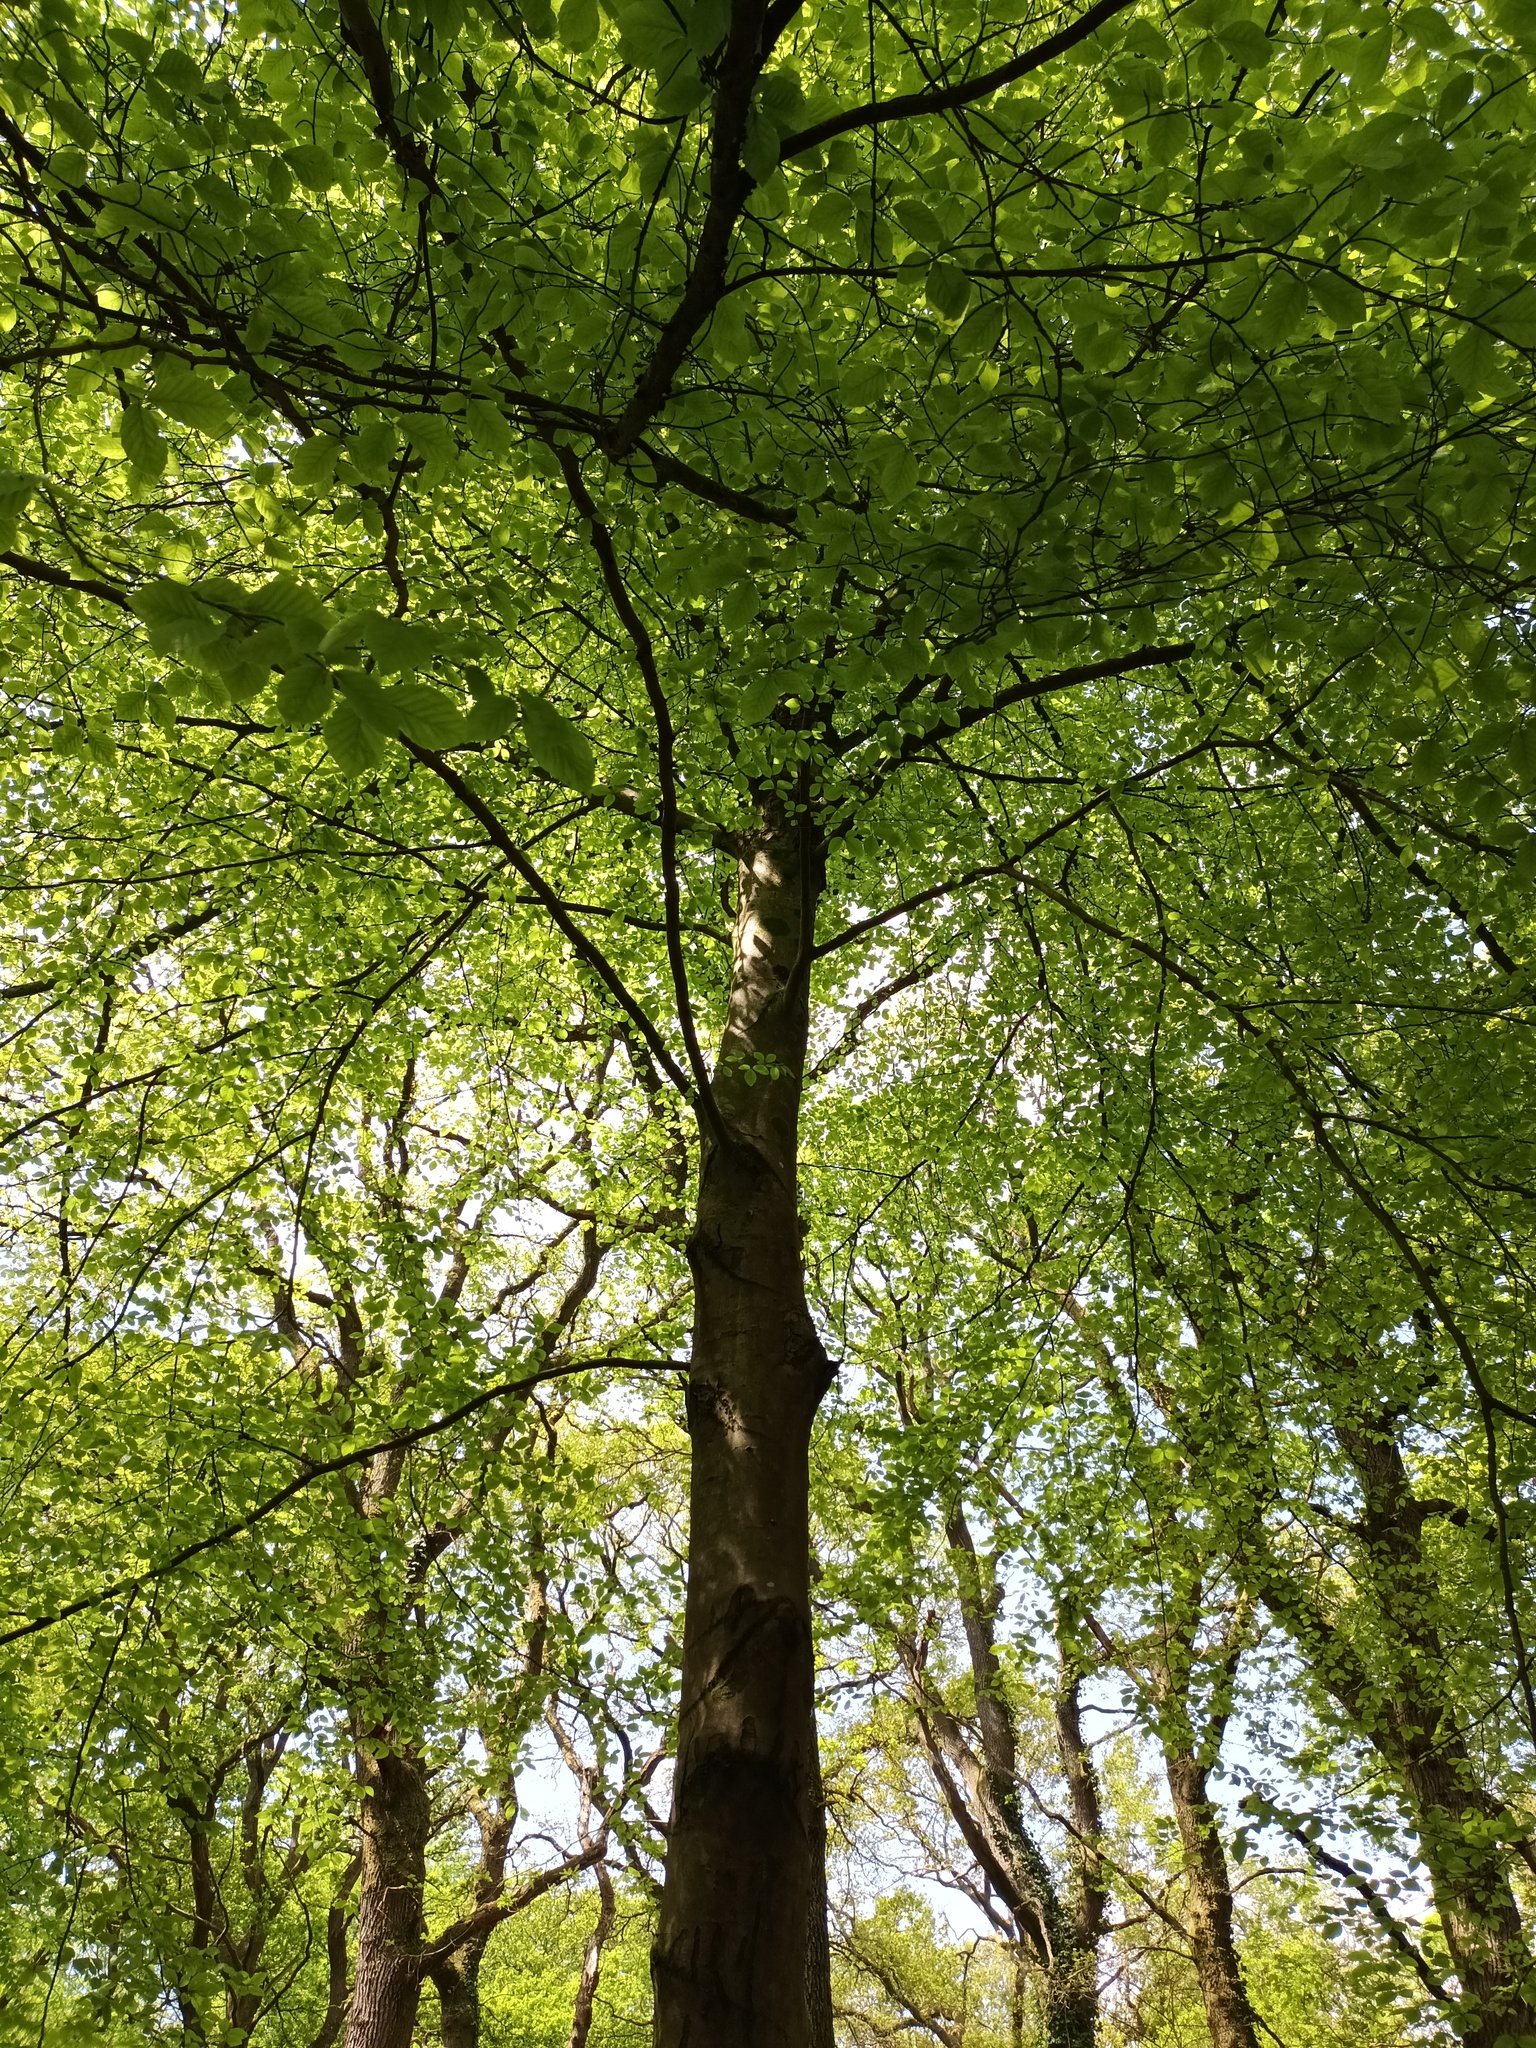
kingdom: Plantae
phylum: Tracheophyta
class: Magnoliopsida
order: Fagales
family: Fagaceae
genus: Fagus
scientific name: Fagus sylvatica
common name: Beech
